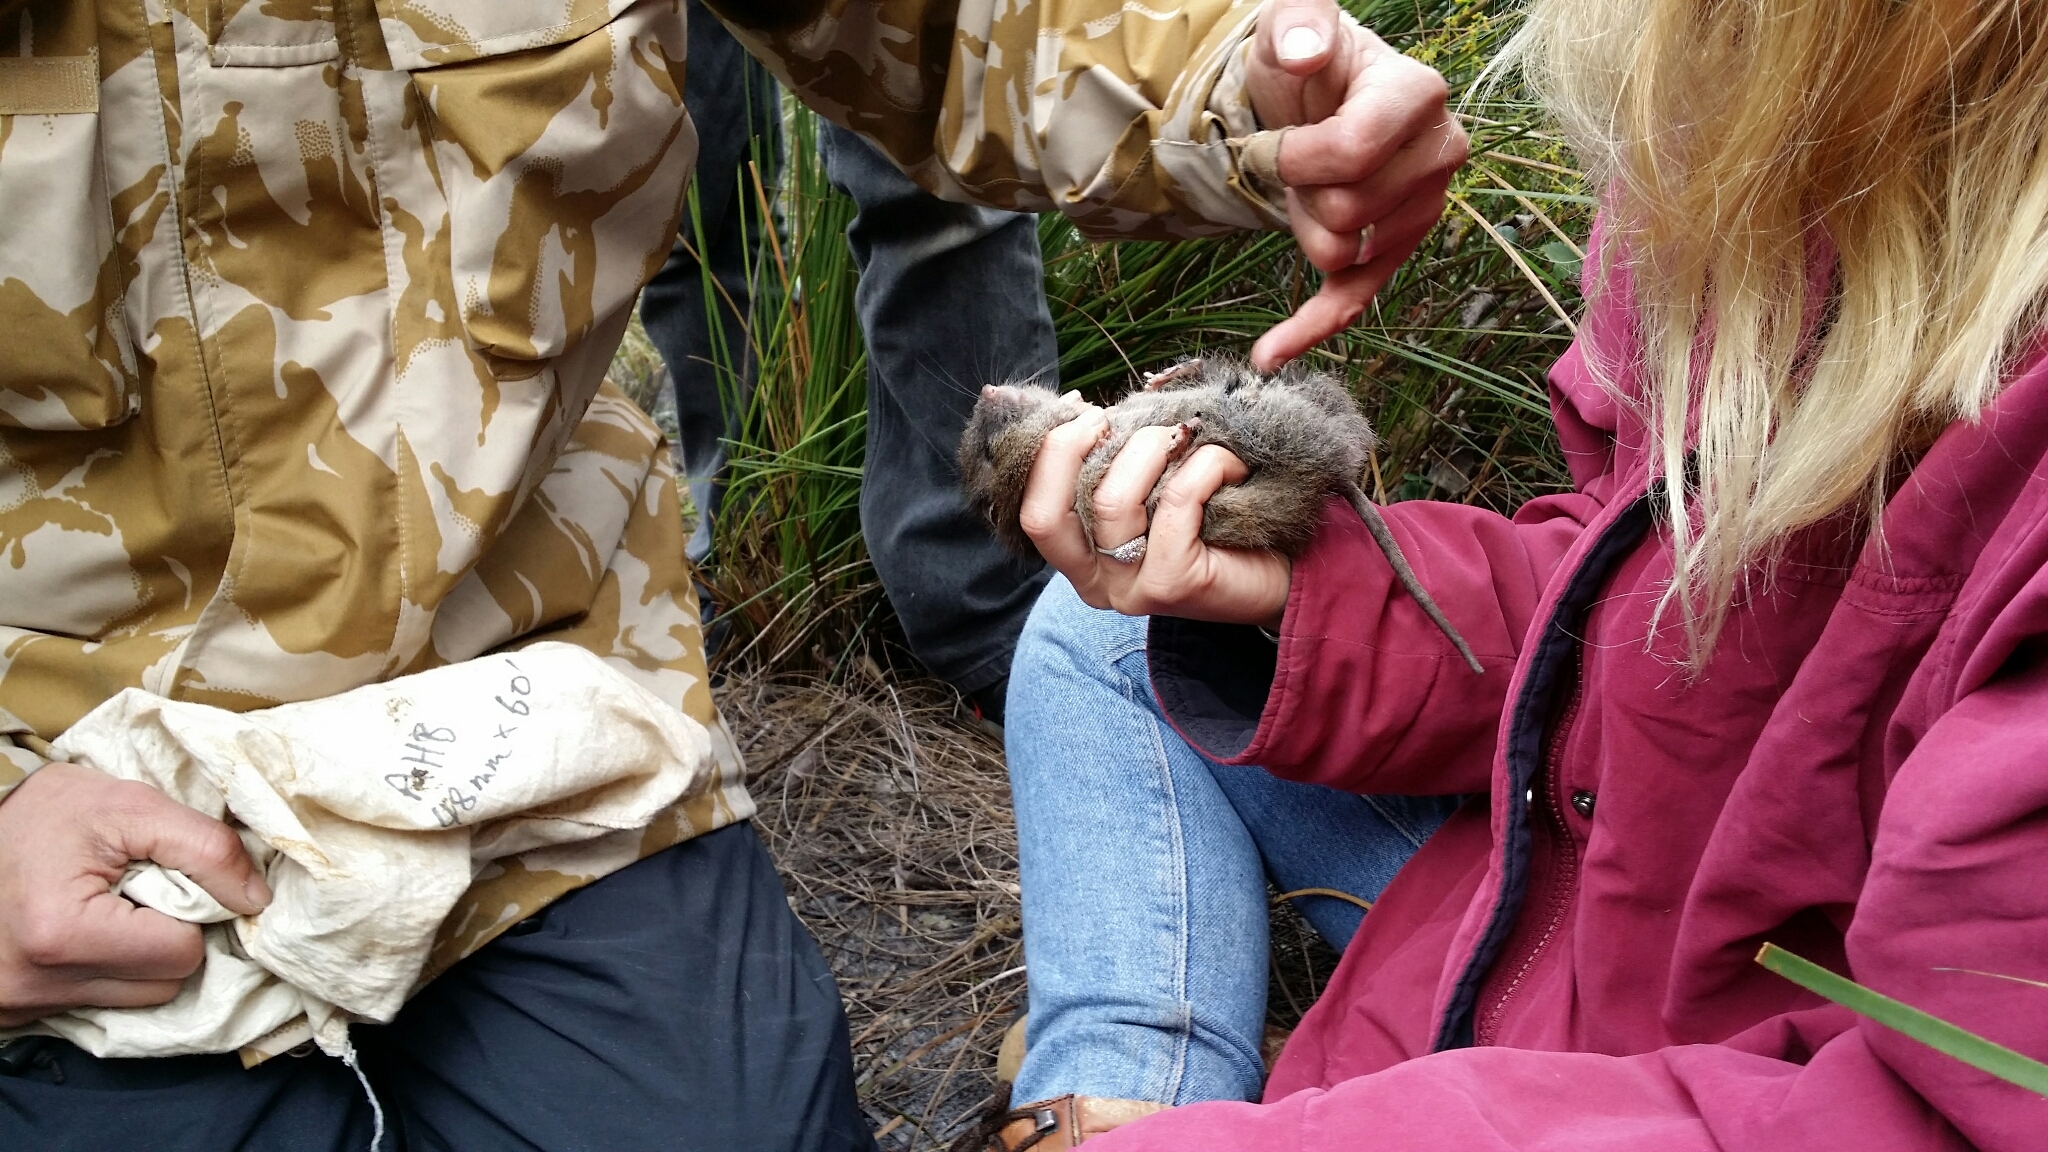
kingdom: Animalia
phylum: Chordata
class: Mammalia
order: Rodentia
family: Muridae
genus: Rattus
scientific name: Rattus fuscipes
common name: Australian bush rat
